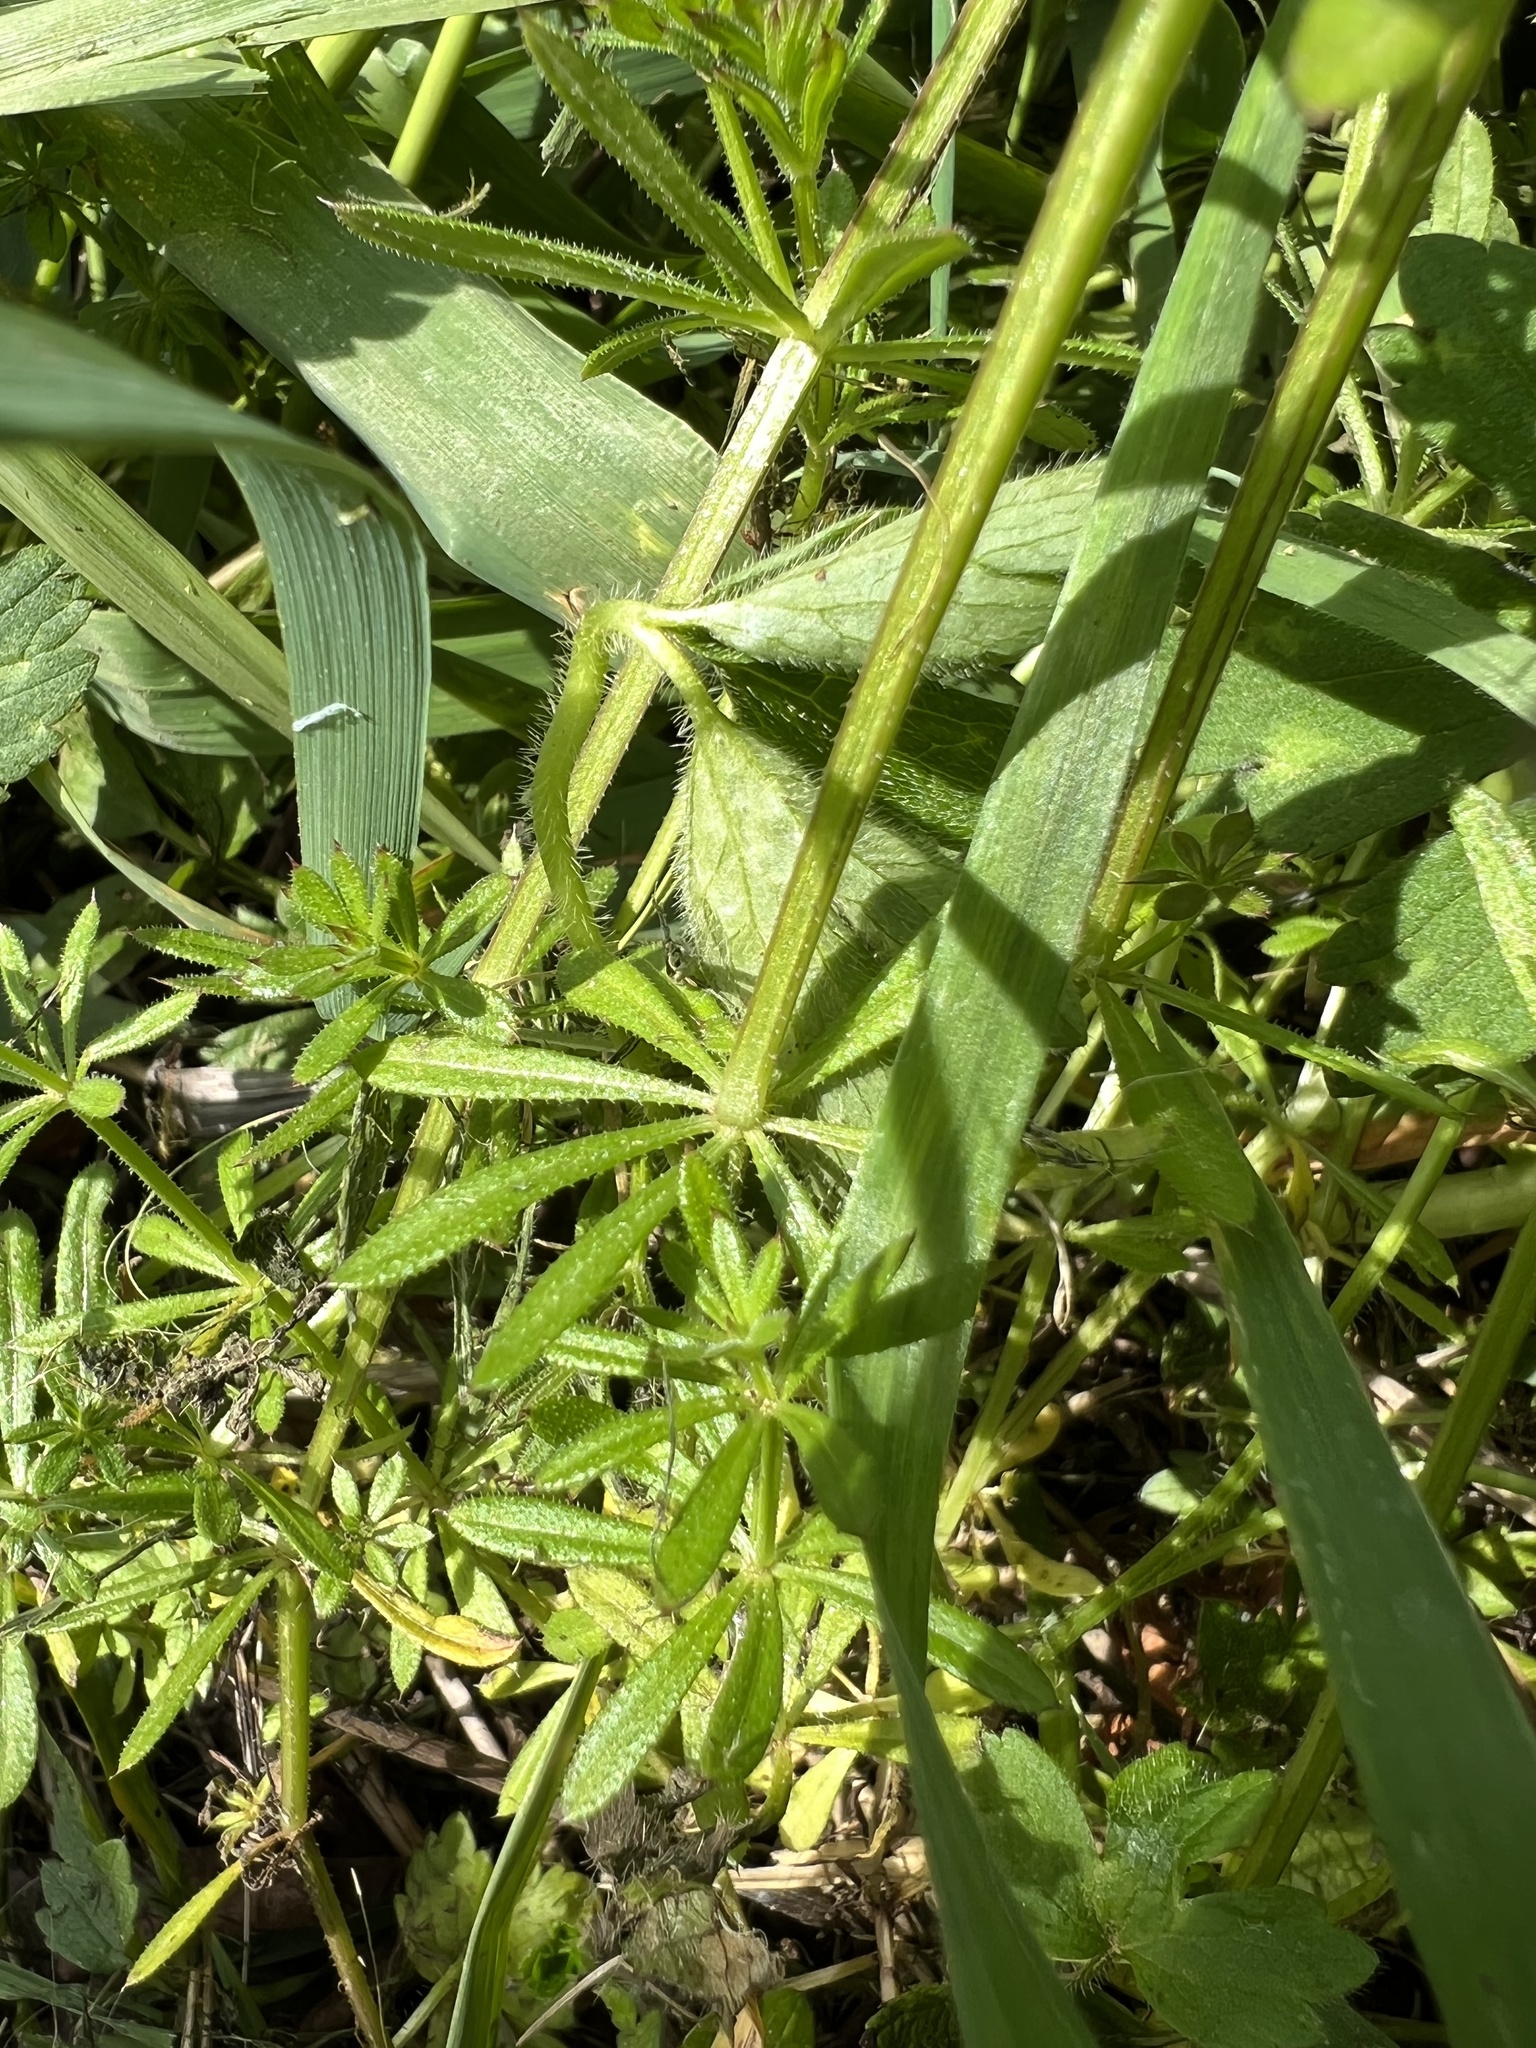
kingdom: Plantae
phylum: Tracheophyta
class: Magnoliopsida
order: Gentianales
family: Rubiaceae
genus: Galium
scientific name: Galium aparine
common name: Cleavers
